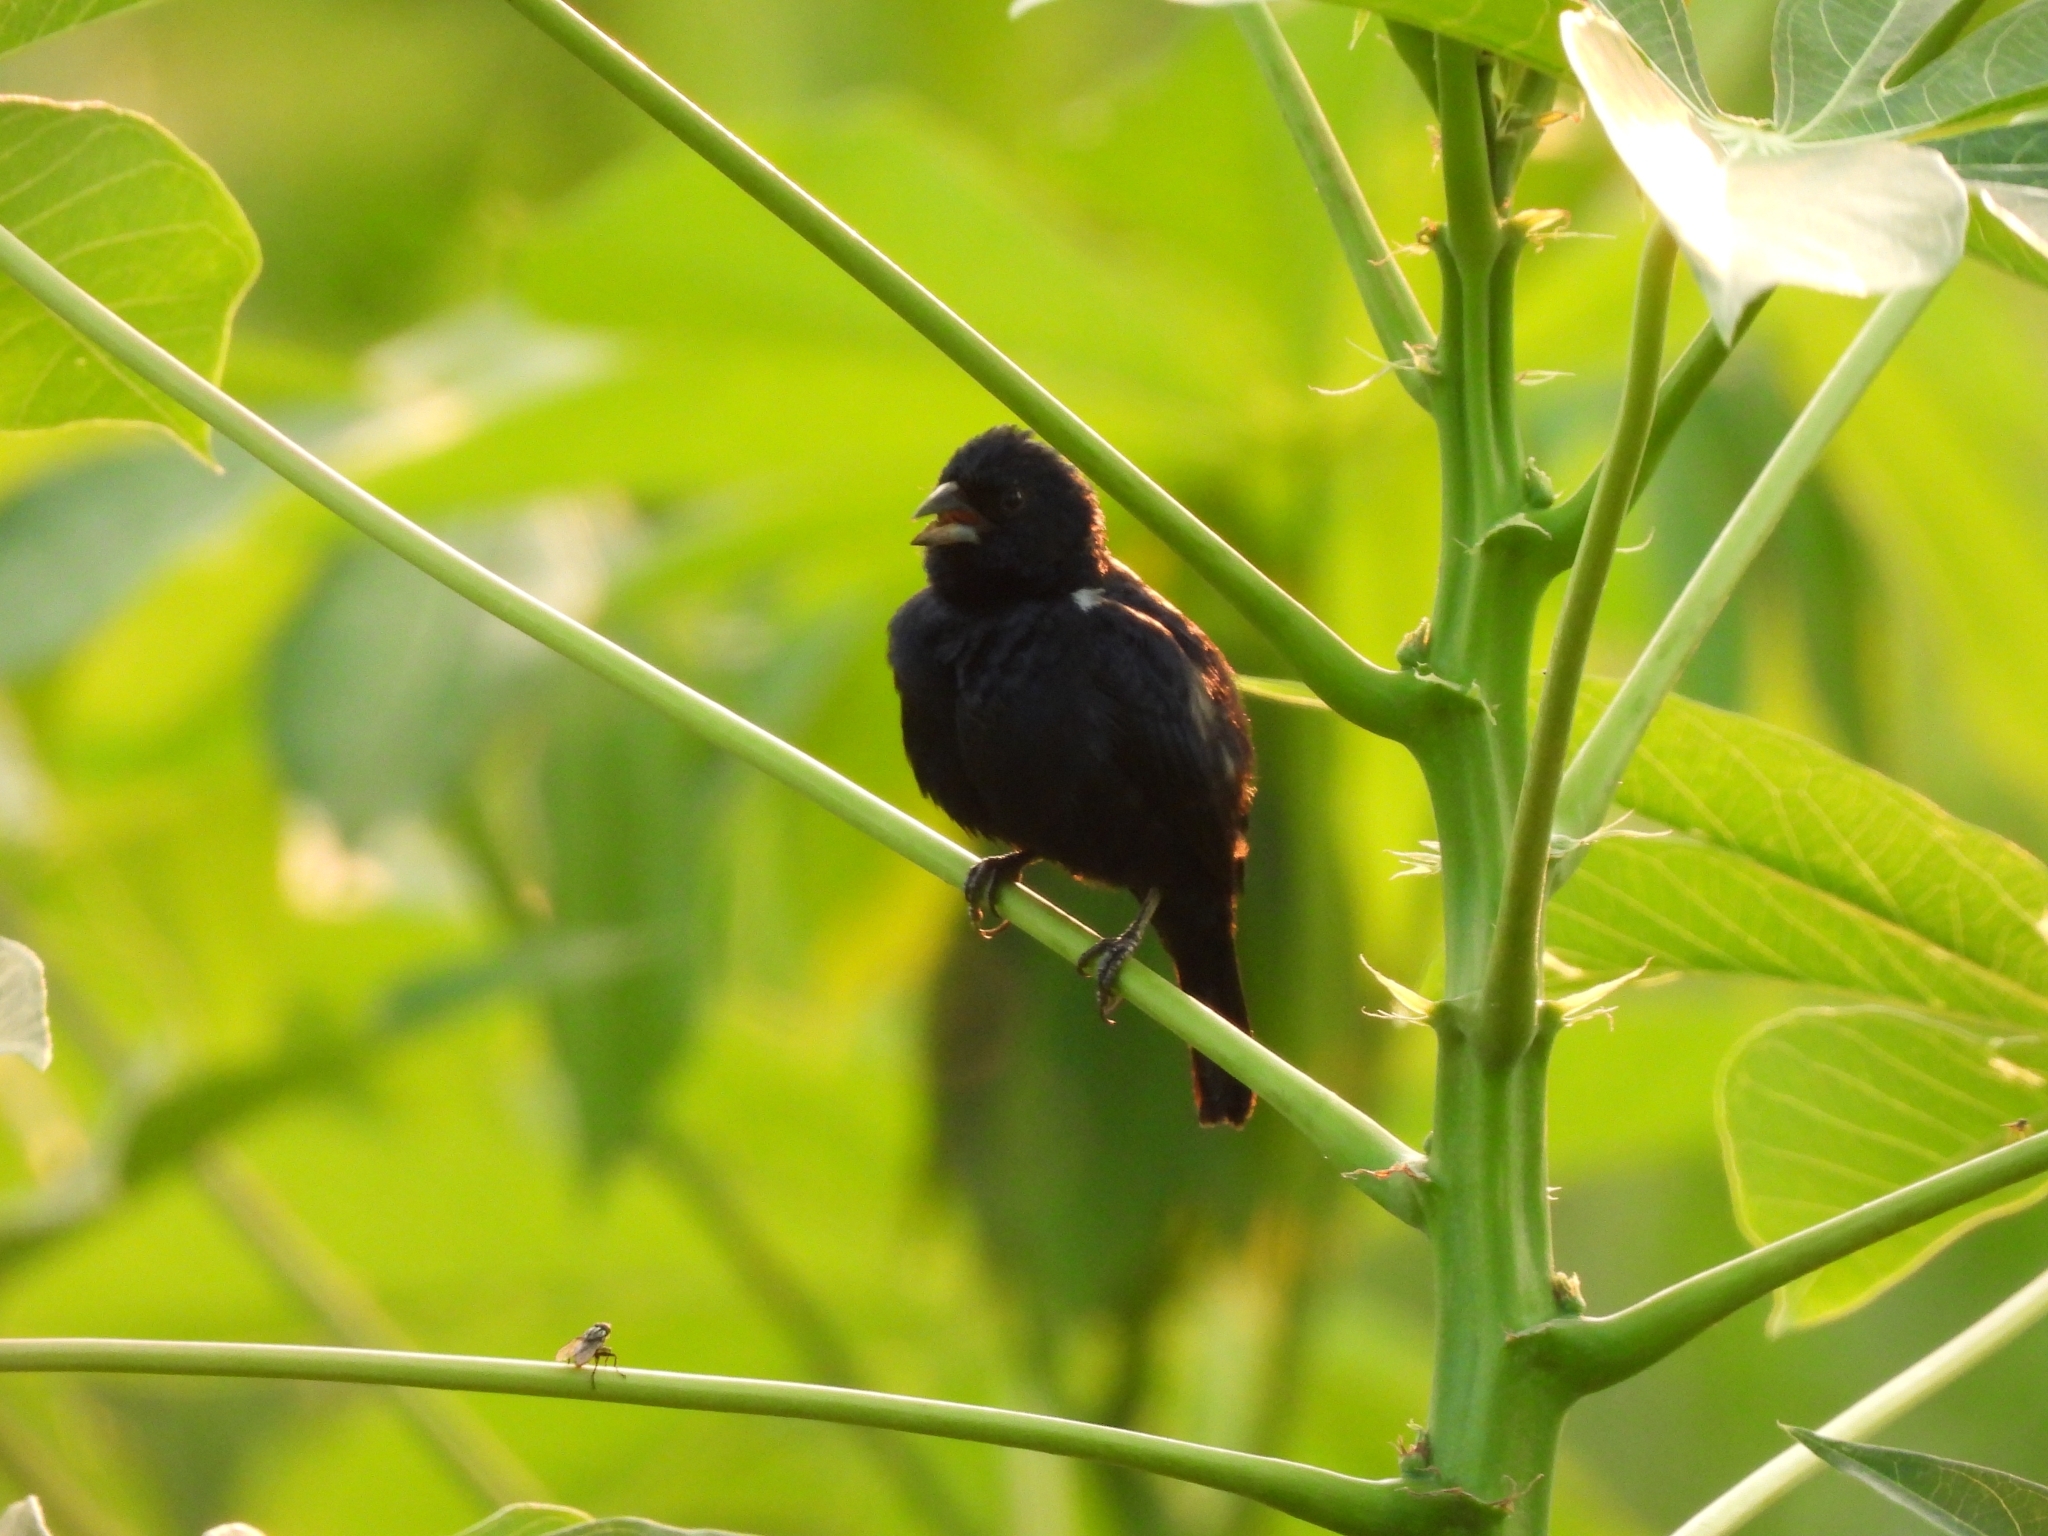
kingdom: Animalia
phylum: Chordata
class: Aves
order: Passeriformes
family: Thraupidae
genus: Volatinia
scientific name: Volatinia jacarina
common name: Blue-black grassquit
